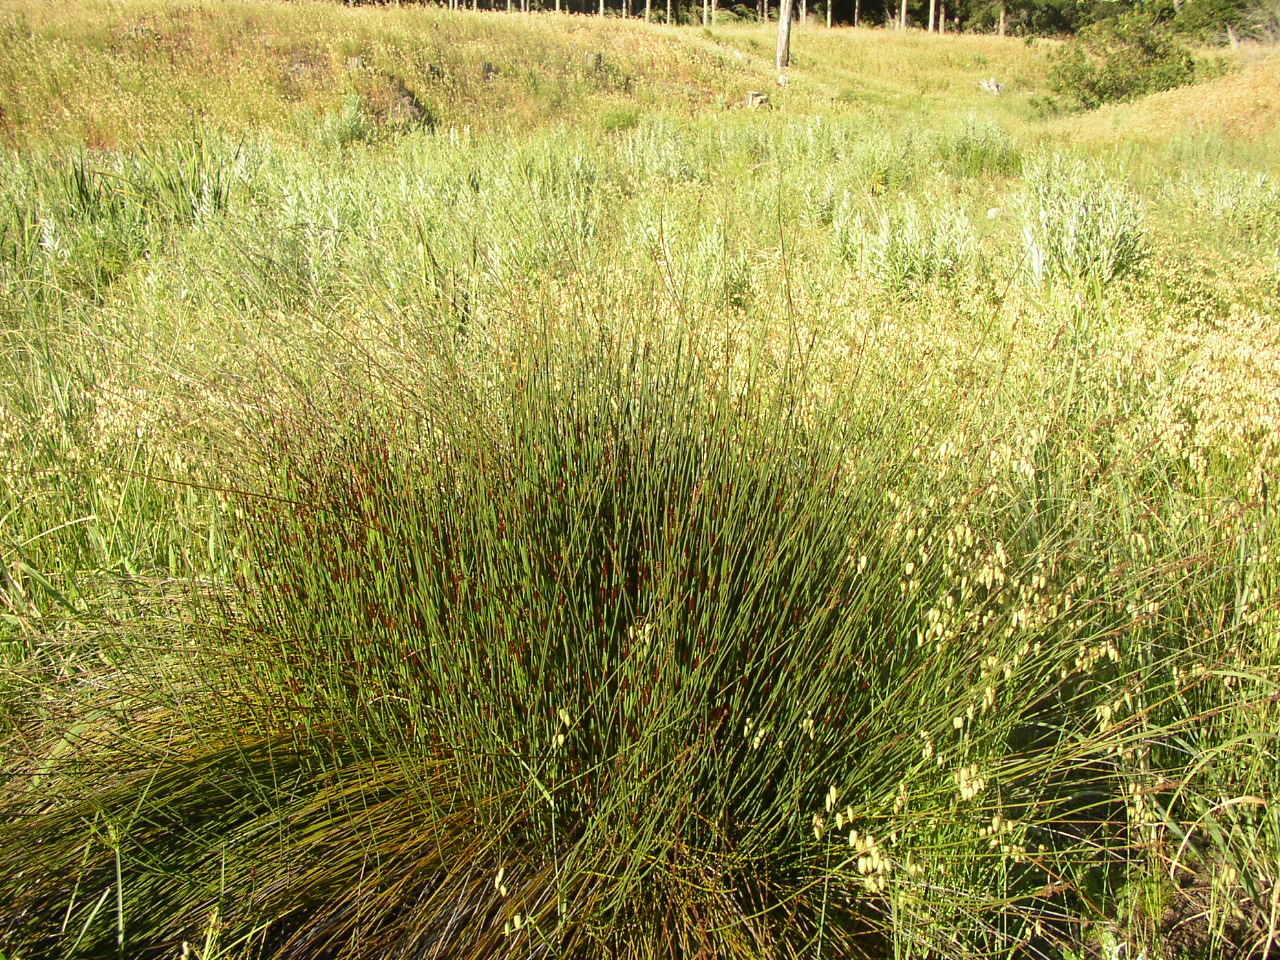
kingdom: Plantae
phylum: Tracheophyta
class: Liliopsida
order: Poales
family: Restionaceae
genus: Elegia
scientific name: Elegia tectorum
